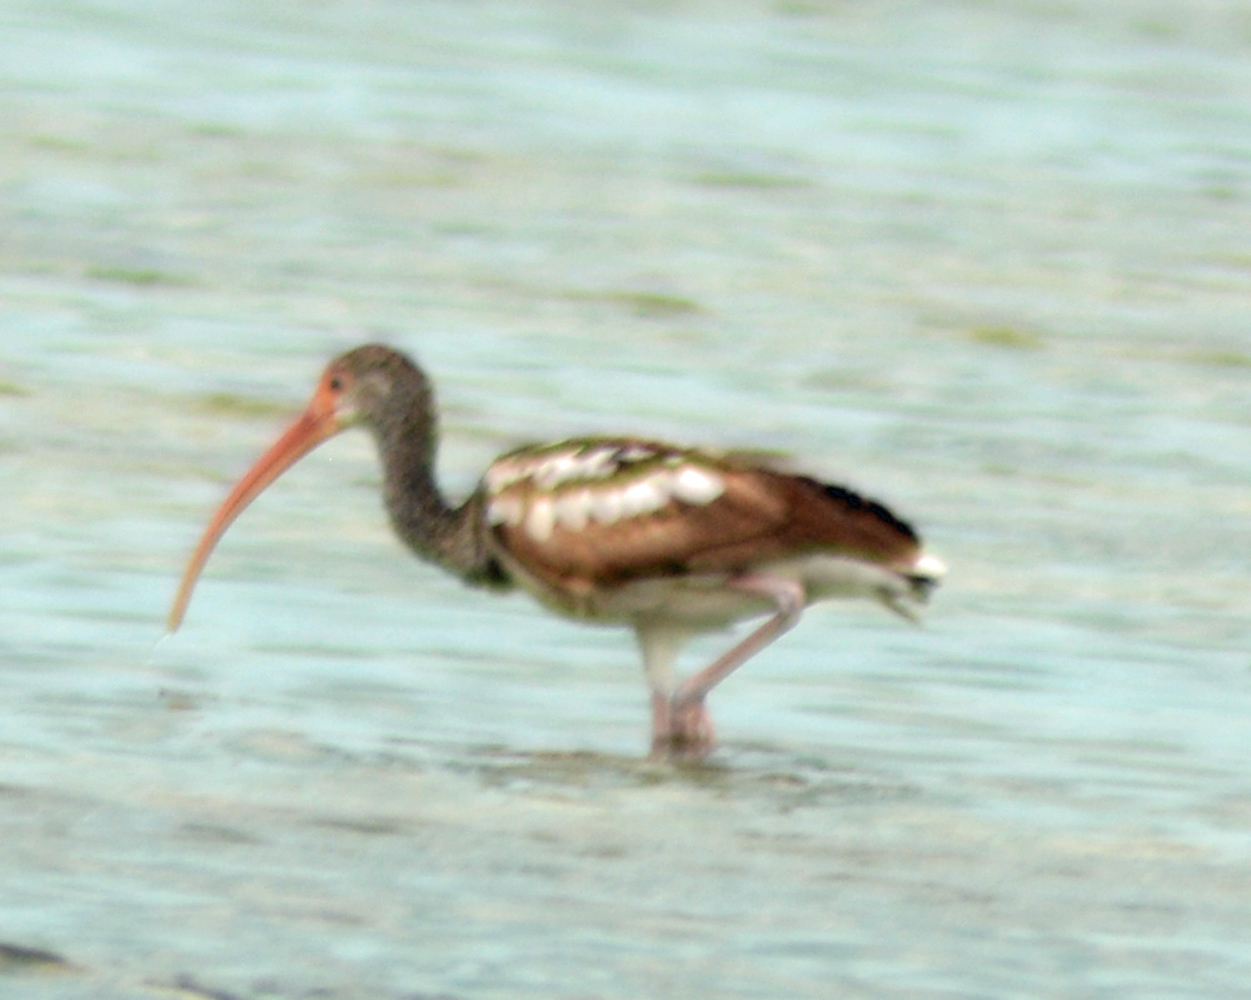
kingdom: Animalia
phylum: Chordata
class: Aves
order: Pelecaniformes
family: Threskiornithidae
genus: Eudocimus
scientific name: Eudocimus albus
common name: White ibis
